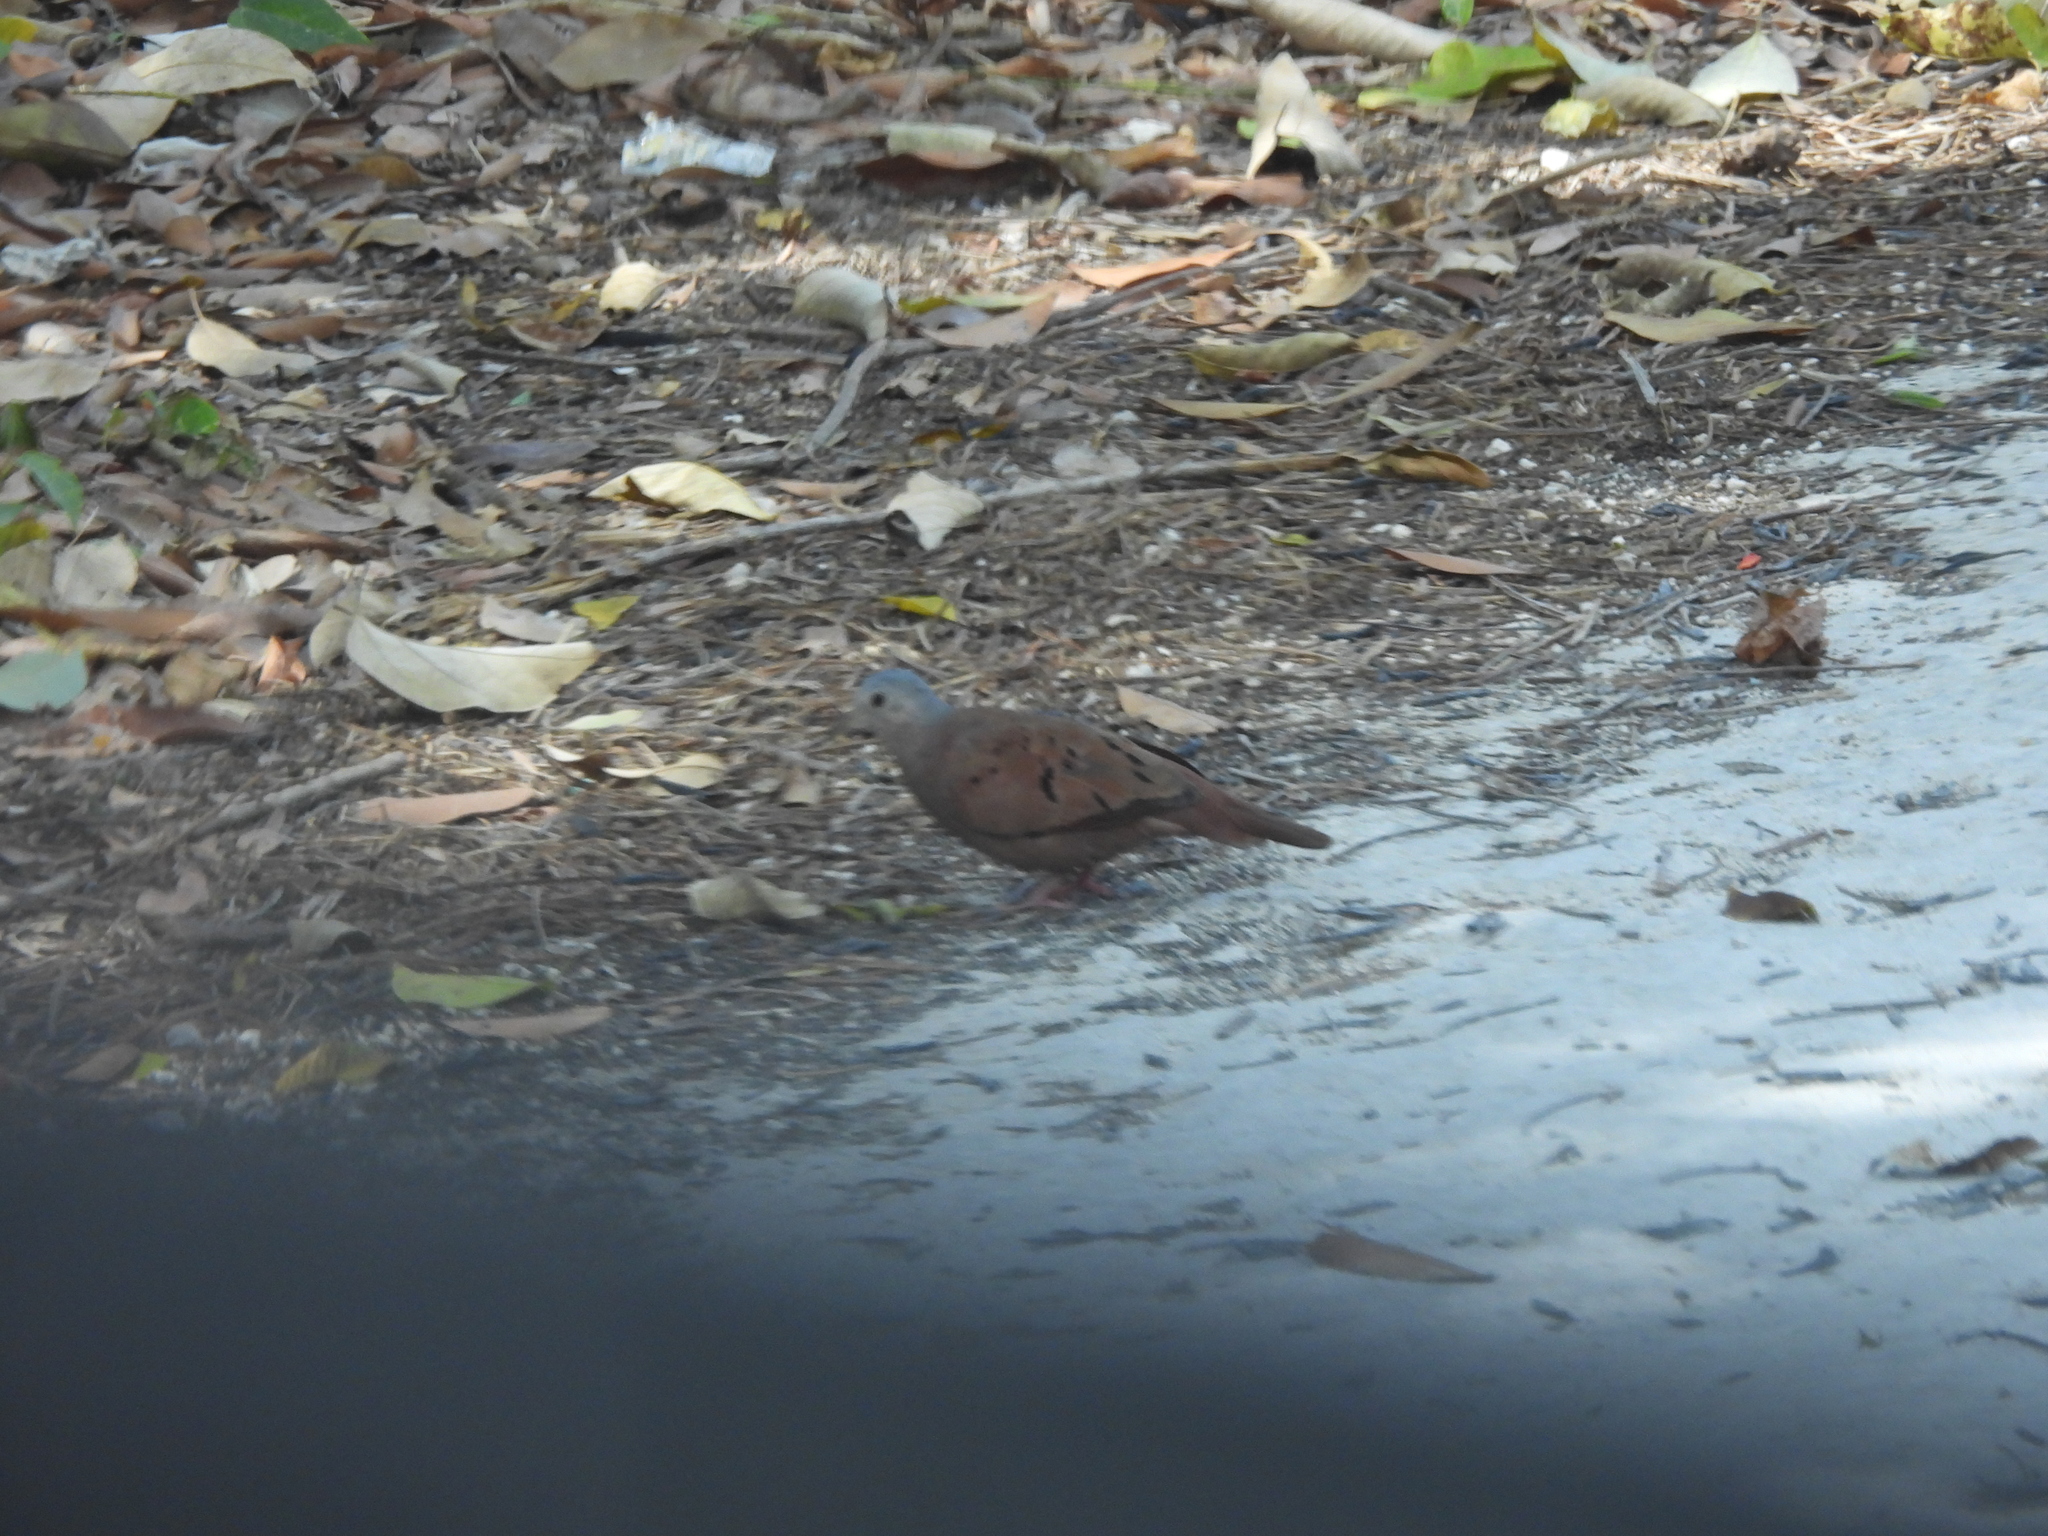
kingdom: Animalia
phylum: Chordata
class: Aves
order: Columbiformes
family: Columbidae
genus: Columbina
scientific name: Columbina talpacoti
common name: Ruddy ground dove
